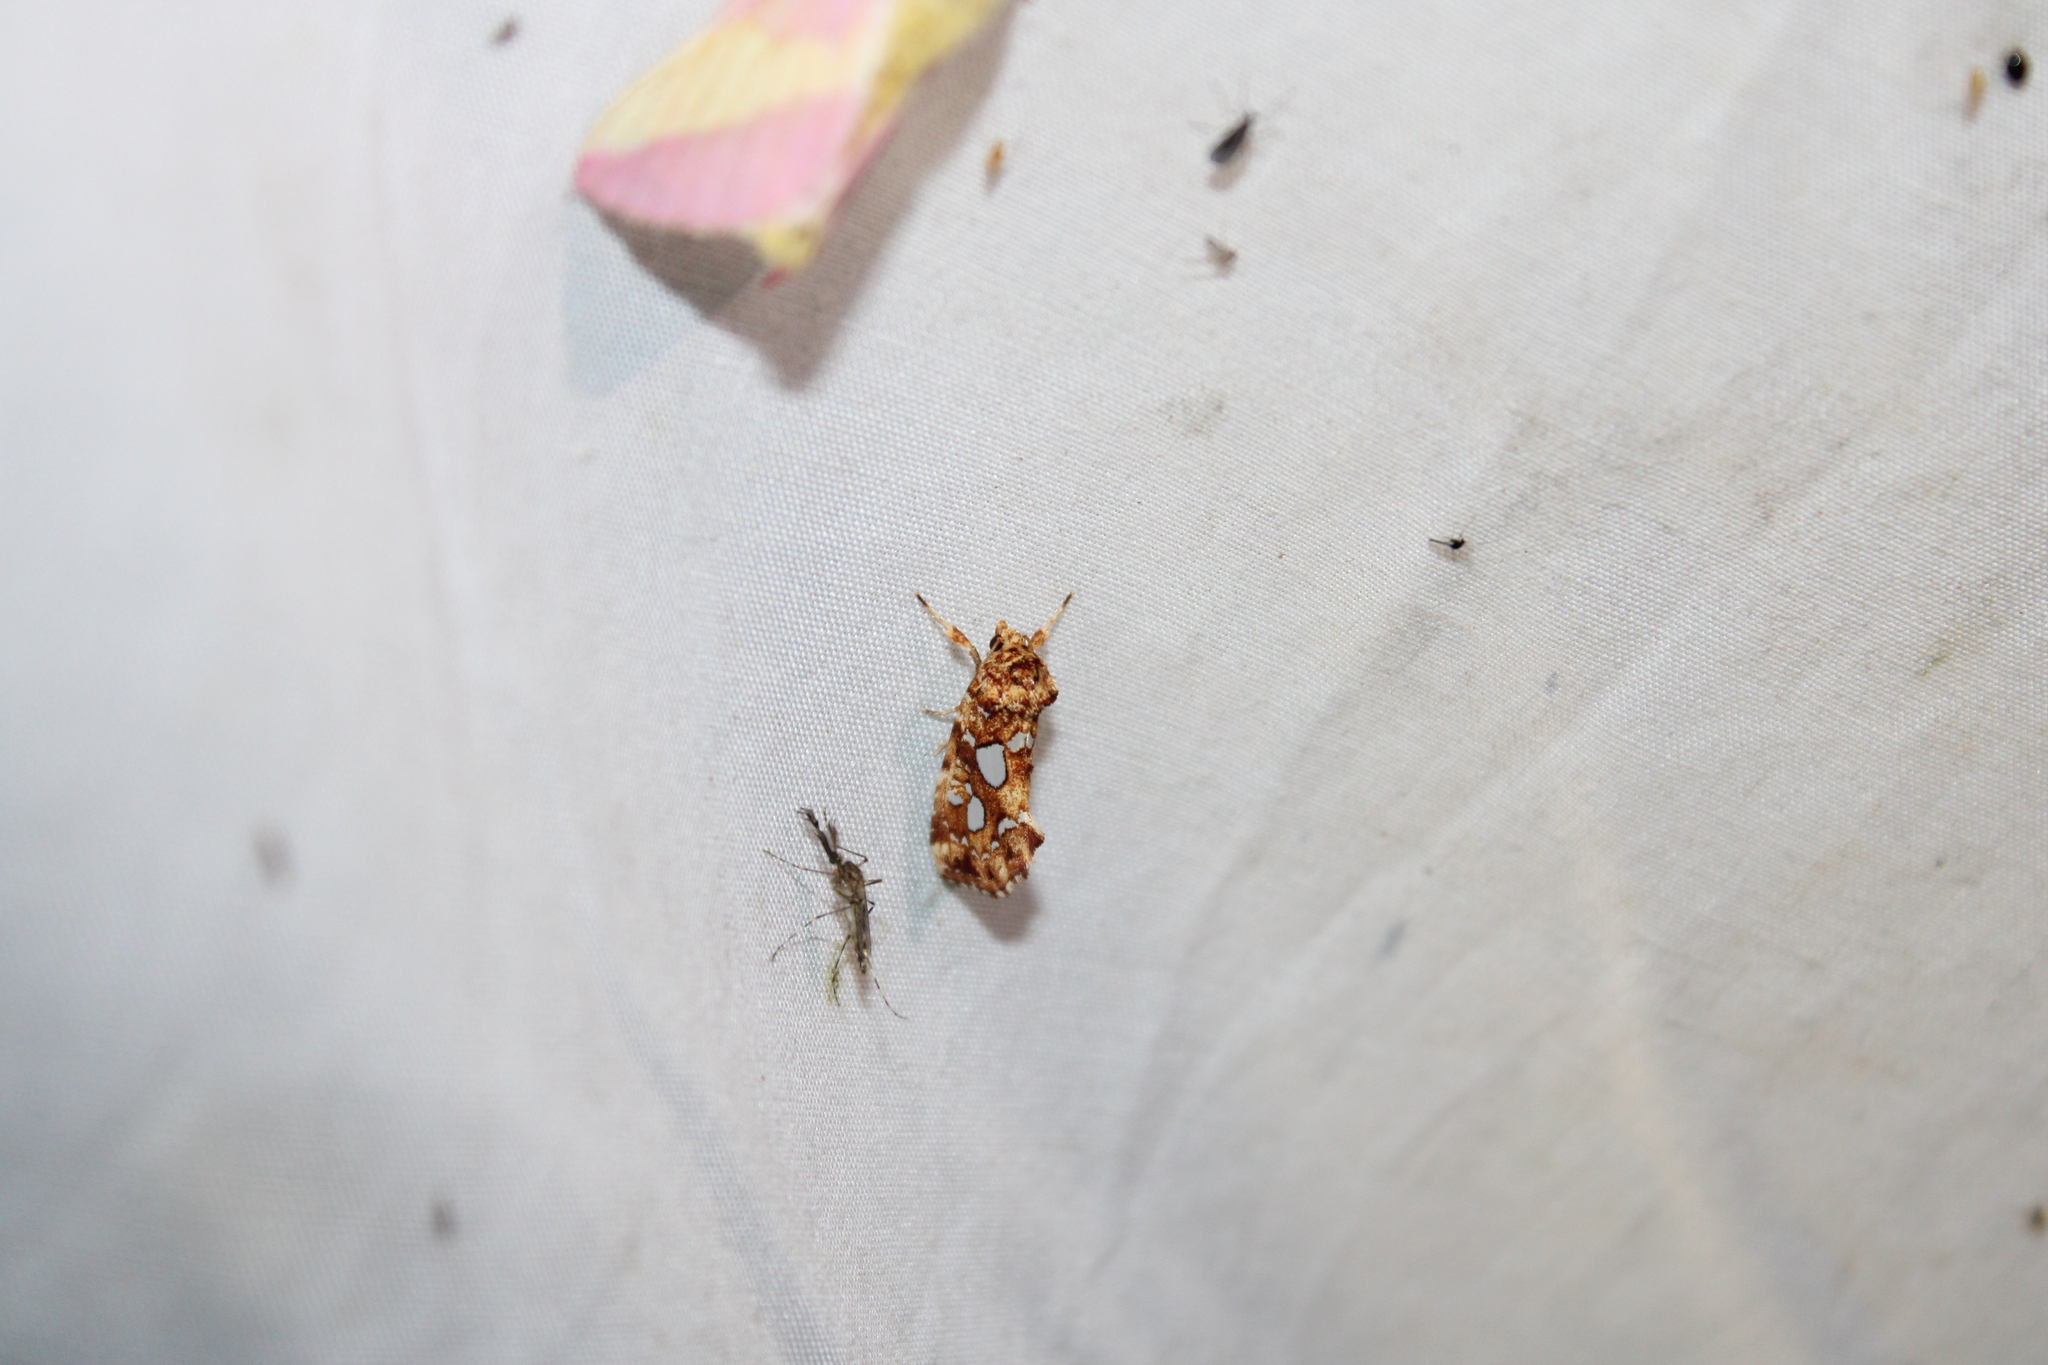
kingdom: Animalia
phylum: Arthropoda
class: Insecta
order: Lepidoptera
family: Noctuidae
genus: Callopistria
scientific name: Callopistria cordata
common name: Silver-spotted fern moth
